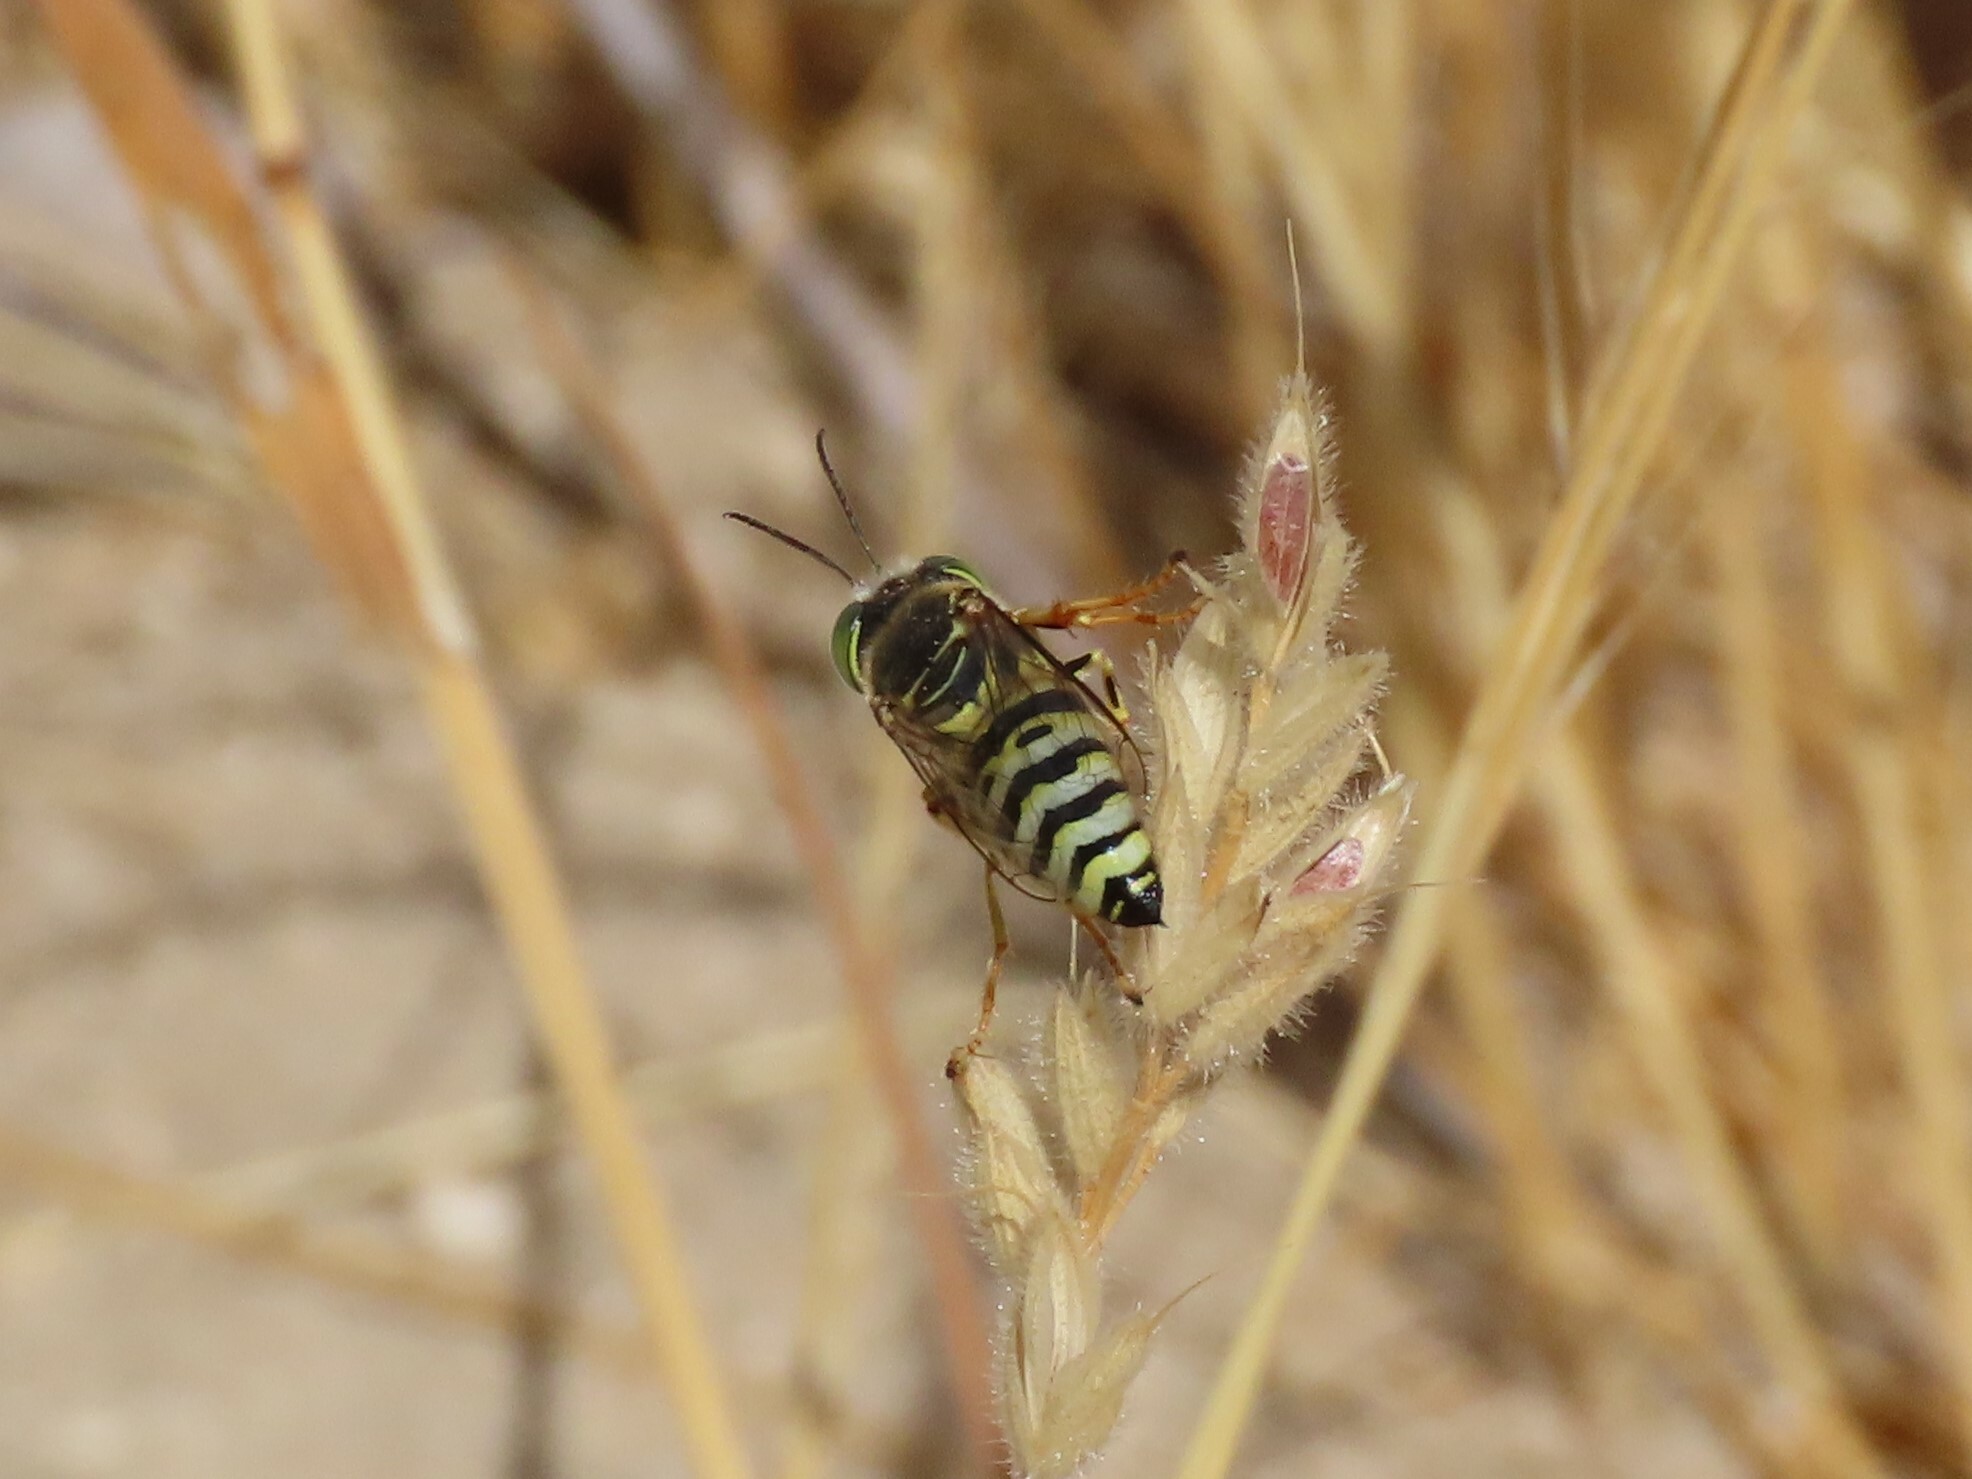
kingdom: Animalia
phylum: Arthropoda
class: Insecta
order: Hymenoptera
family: Crabronidae
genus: Bembix
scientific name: Bembix oculata
